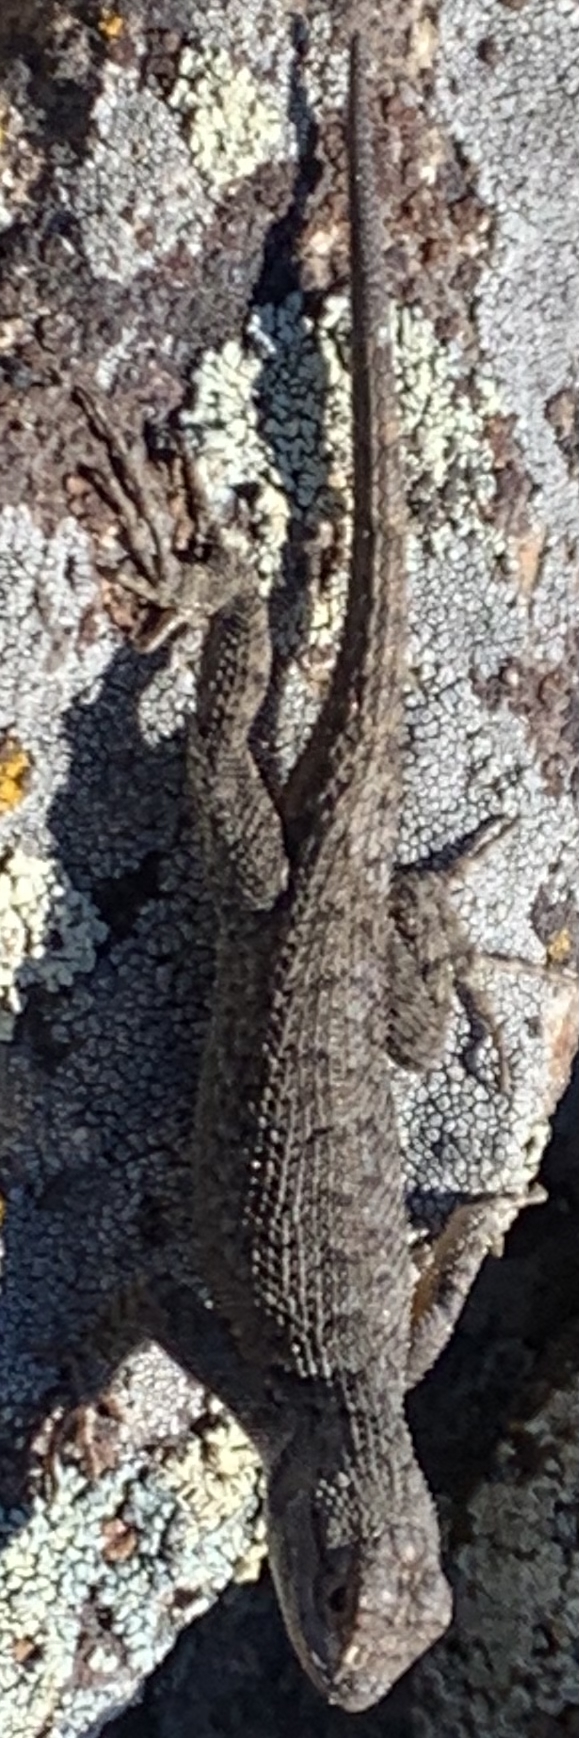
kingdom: Animalia
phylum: Chordata
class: Squamata
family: Phrynosomatidae
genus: Sceloporus
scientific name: Sceloporus occidentalis
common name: Western fence lizard
